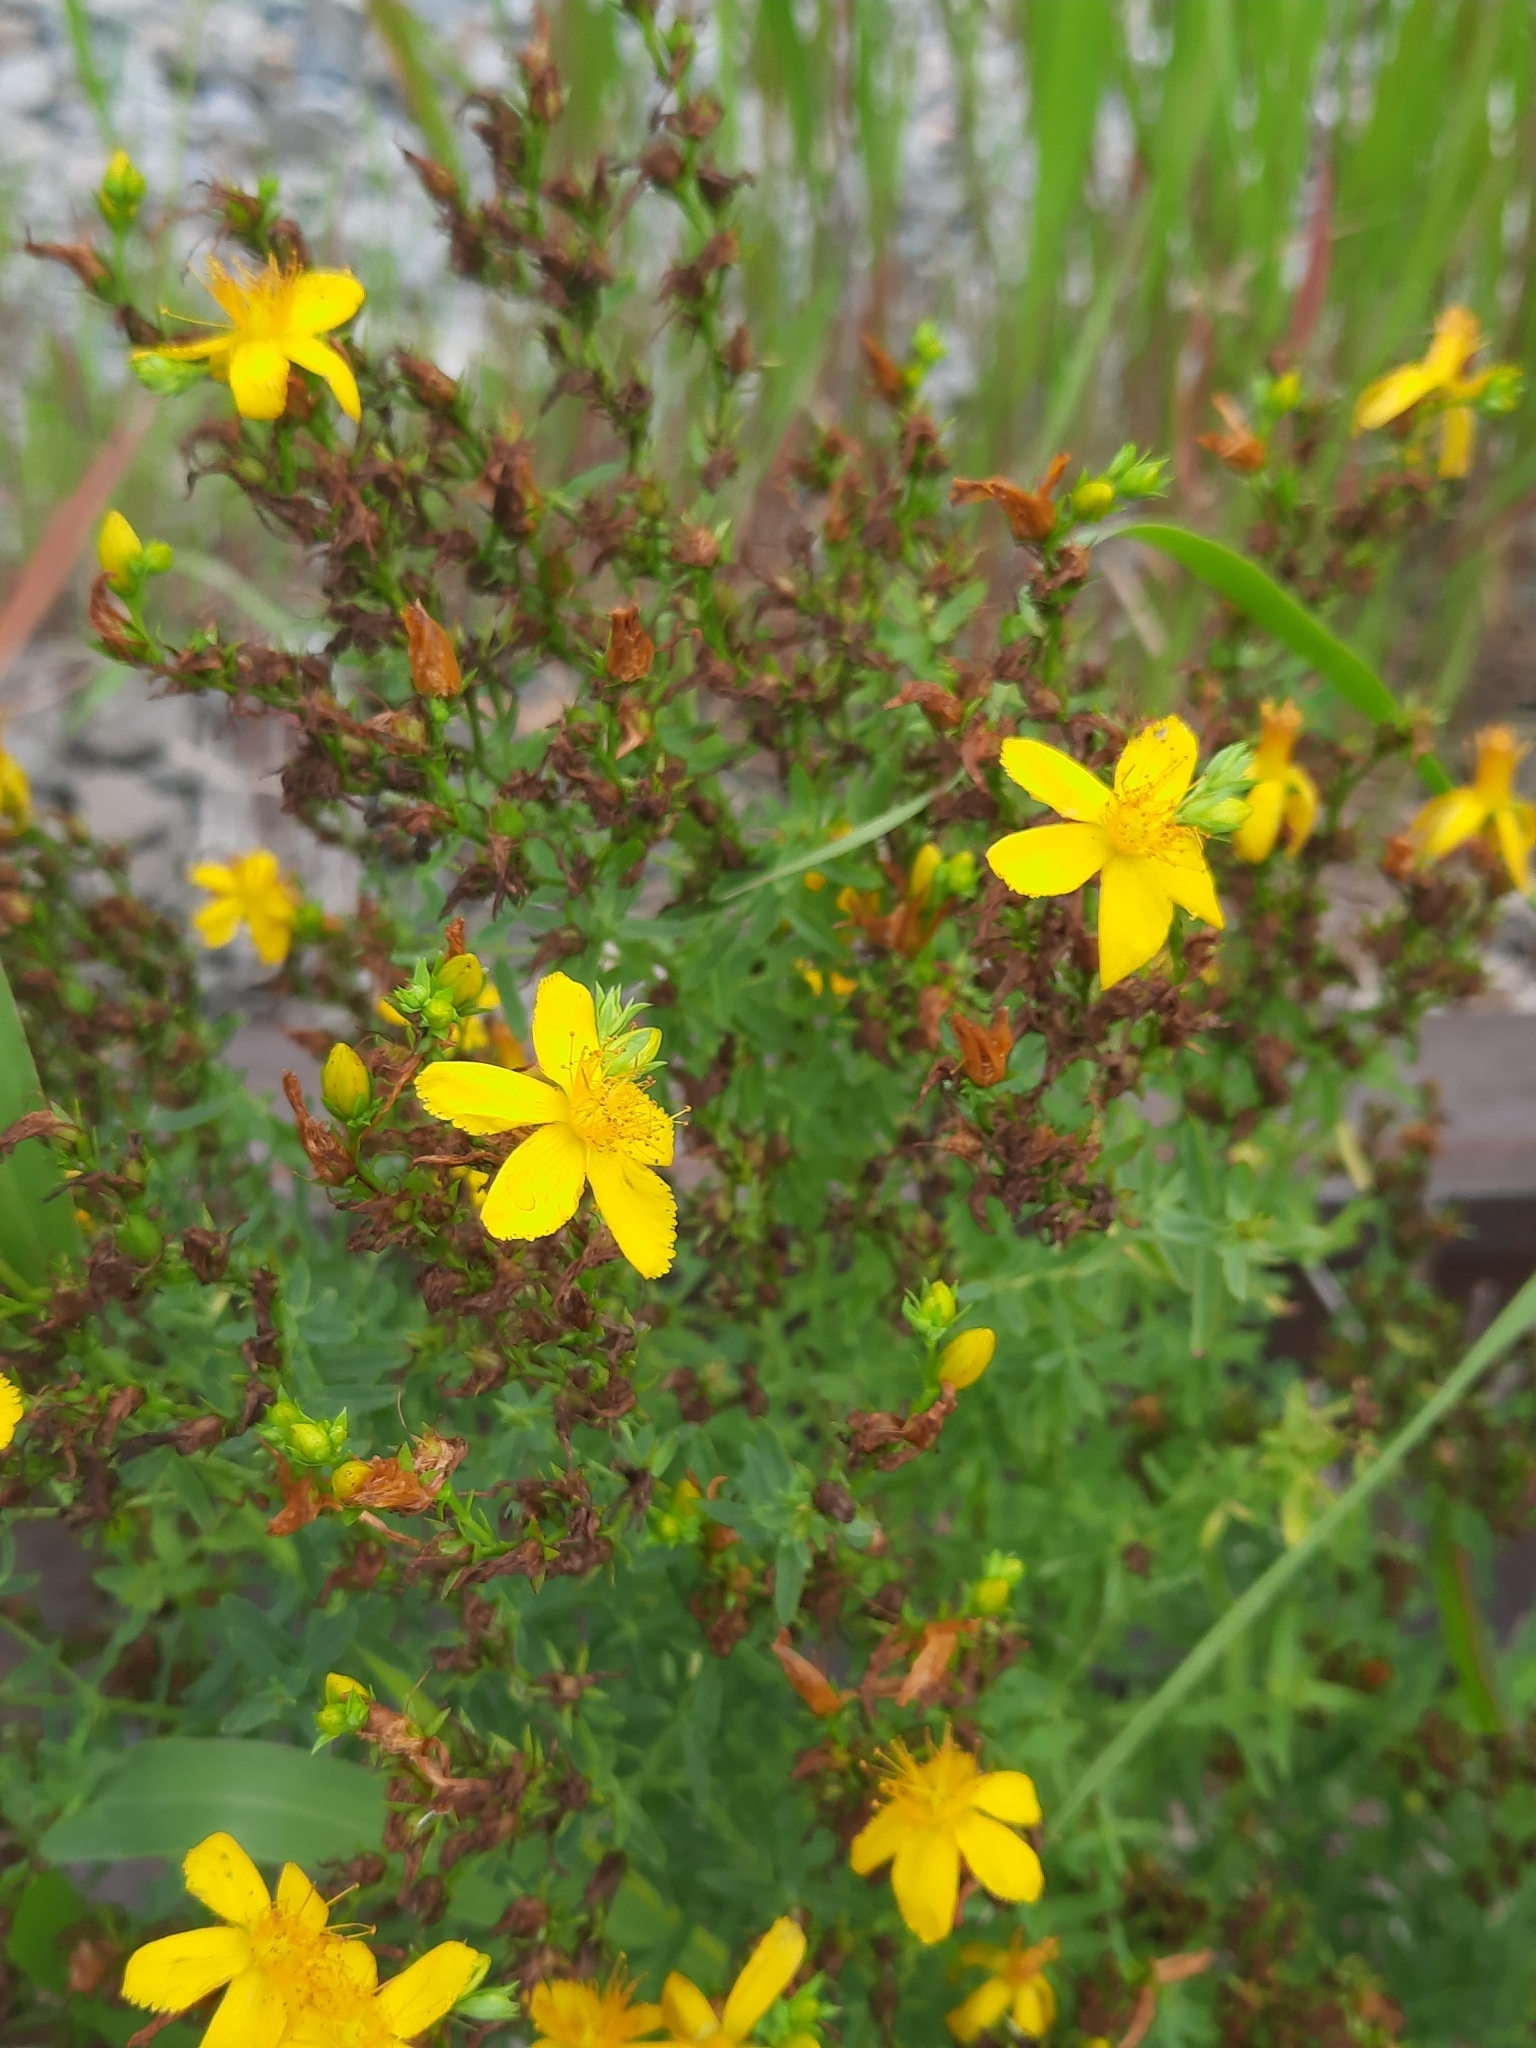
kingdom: Plantae
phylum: Tracheophyta
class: Magnoliopsida
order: Malpighiales
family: Hypericaceae
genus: Hypericum
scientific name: Hypericum perforatum
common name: Common st. johnswort
